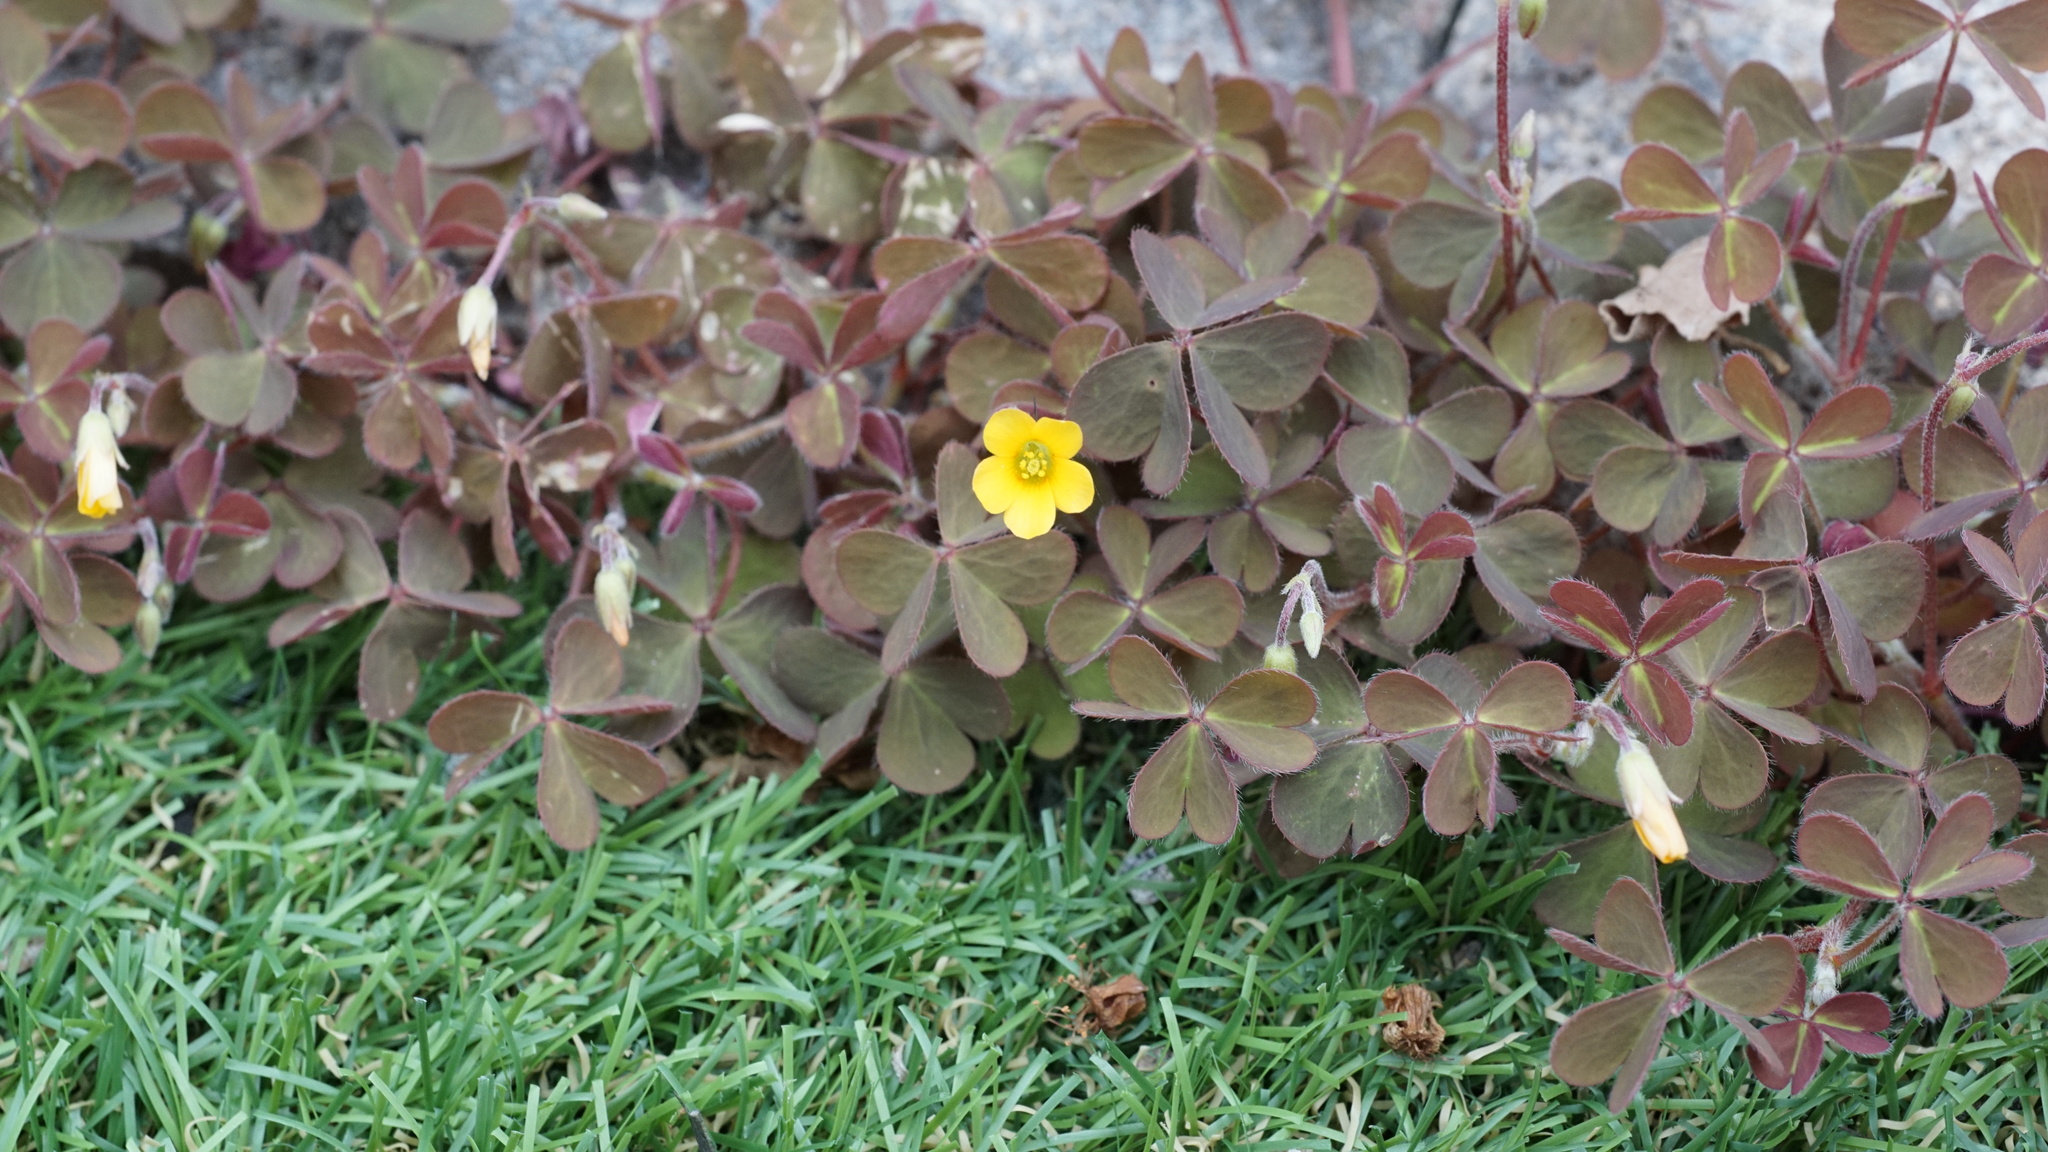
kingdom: Plantae
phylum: Tracheophyta
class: Magnoliopsida
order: Oxalidales
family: Oxalidaceae
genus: Oxalis
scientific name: Oxalis corniculata
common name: Procumbent yellow-sorrel
